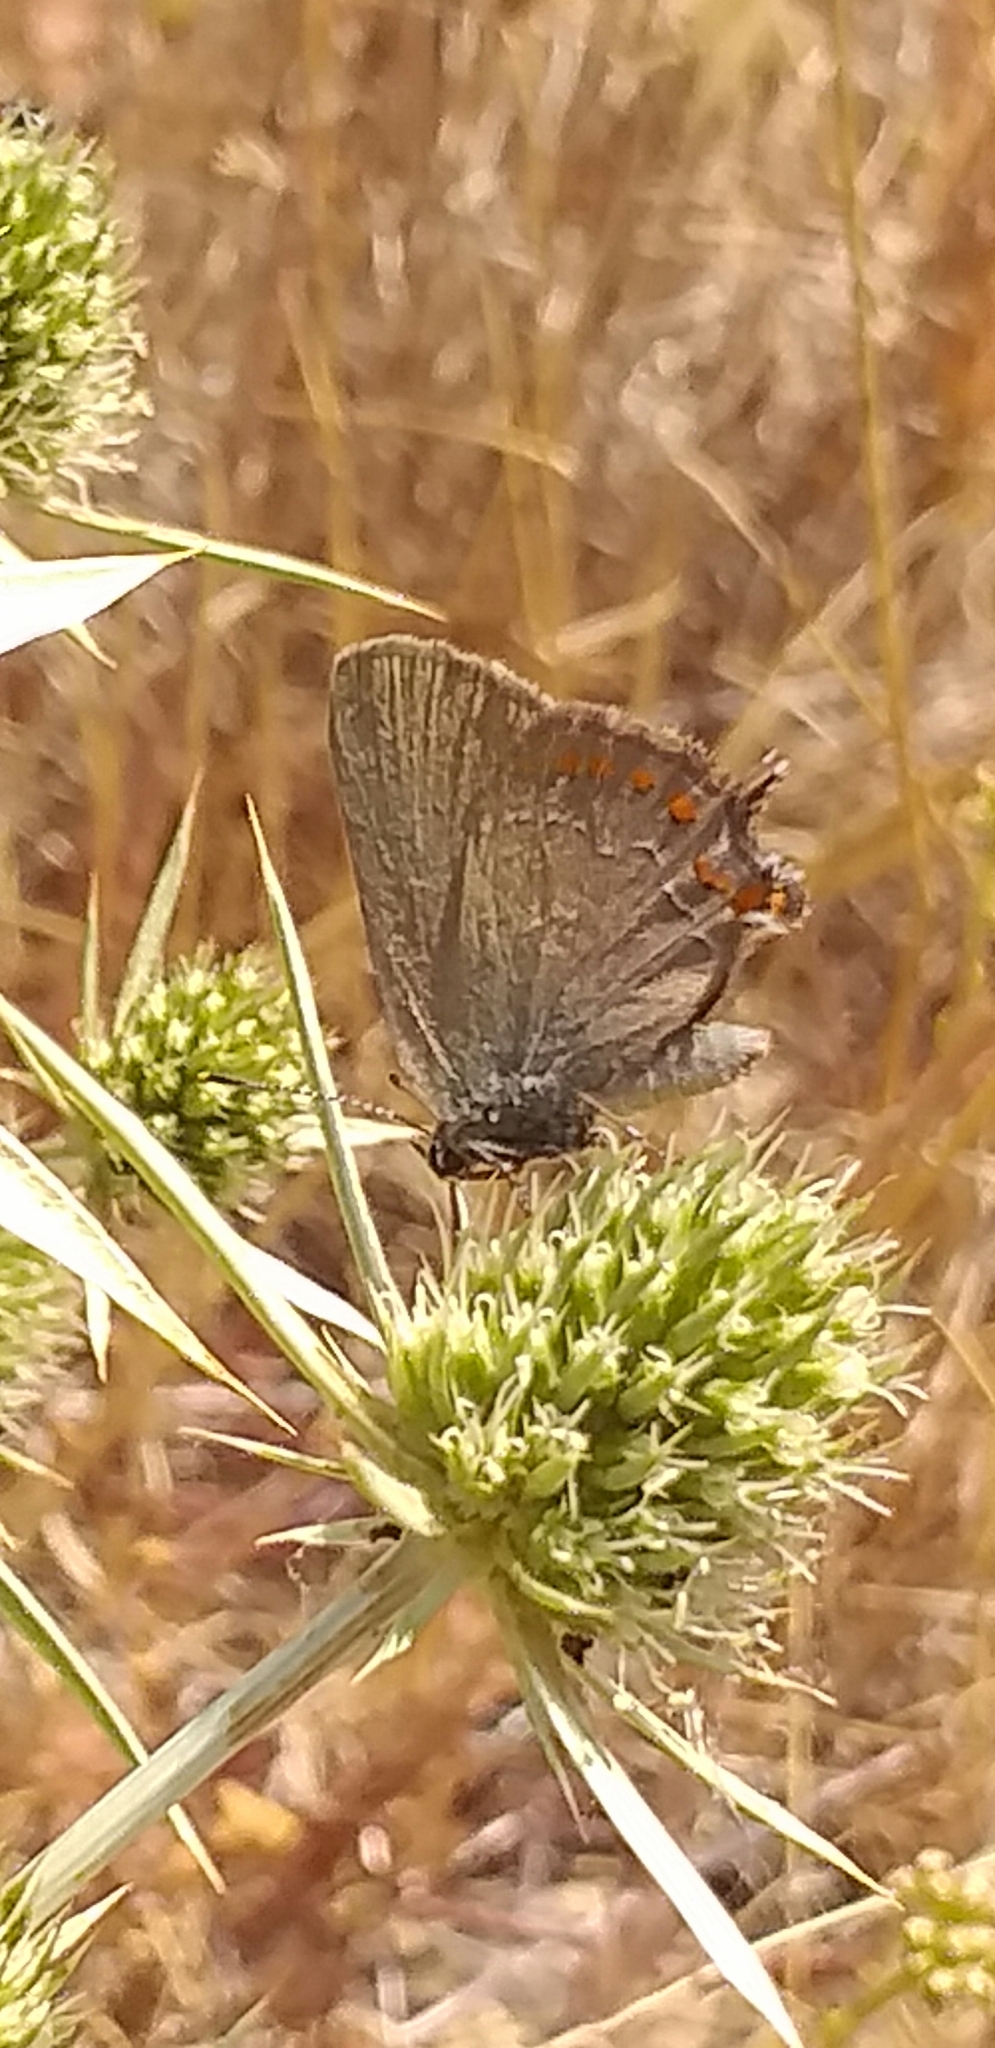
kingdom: Animalia
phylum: Arthropoda
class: Insecta
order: Lepidoptera
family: Lycaenidae
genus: Fixsenia
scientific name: Fixsenia esculi
